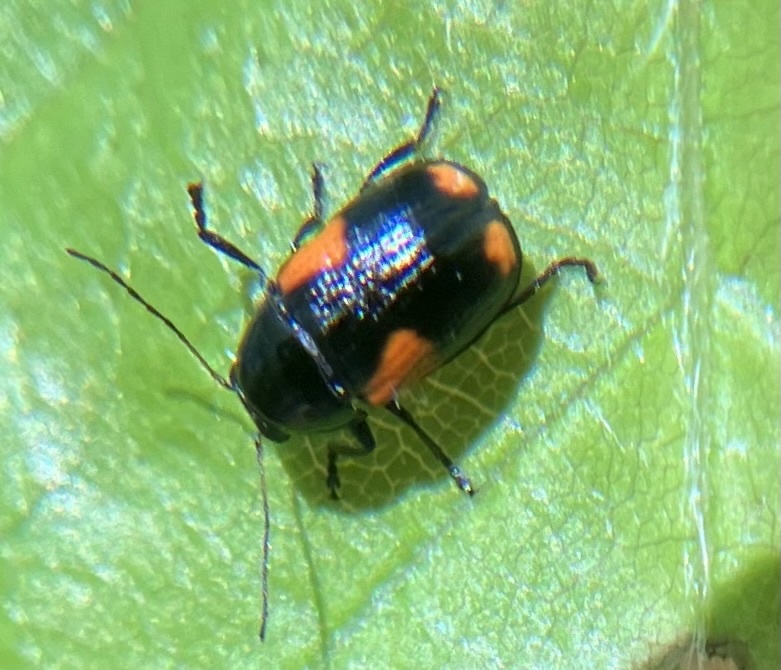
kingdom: Animalia
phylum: Arthropoda
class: Insecta
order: Coleoptera
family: Chrysomelidae
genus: Cryptocephalus
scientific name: Cryptocephalus quadruplex
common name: Black and red sumac leaf beetle
